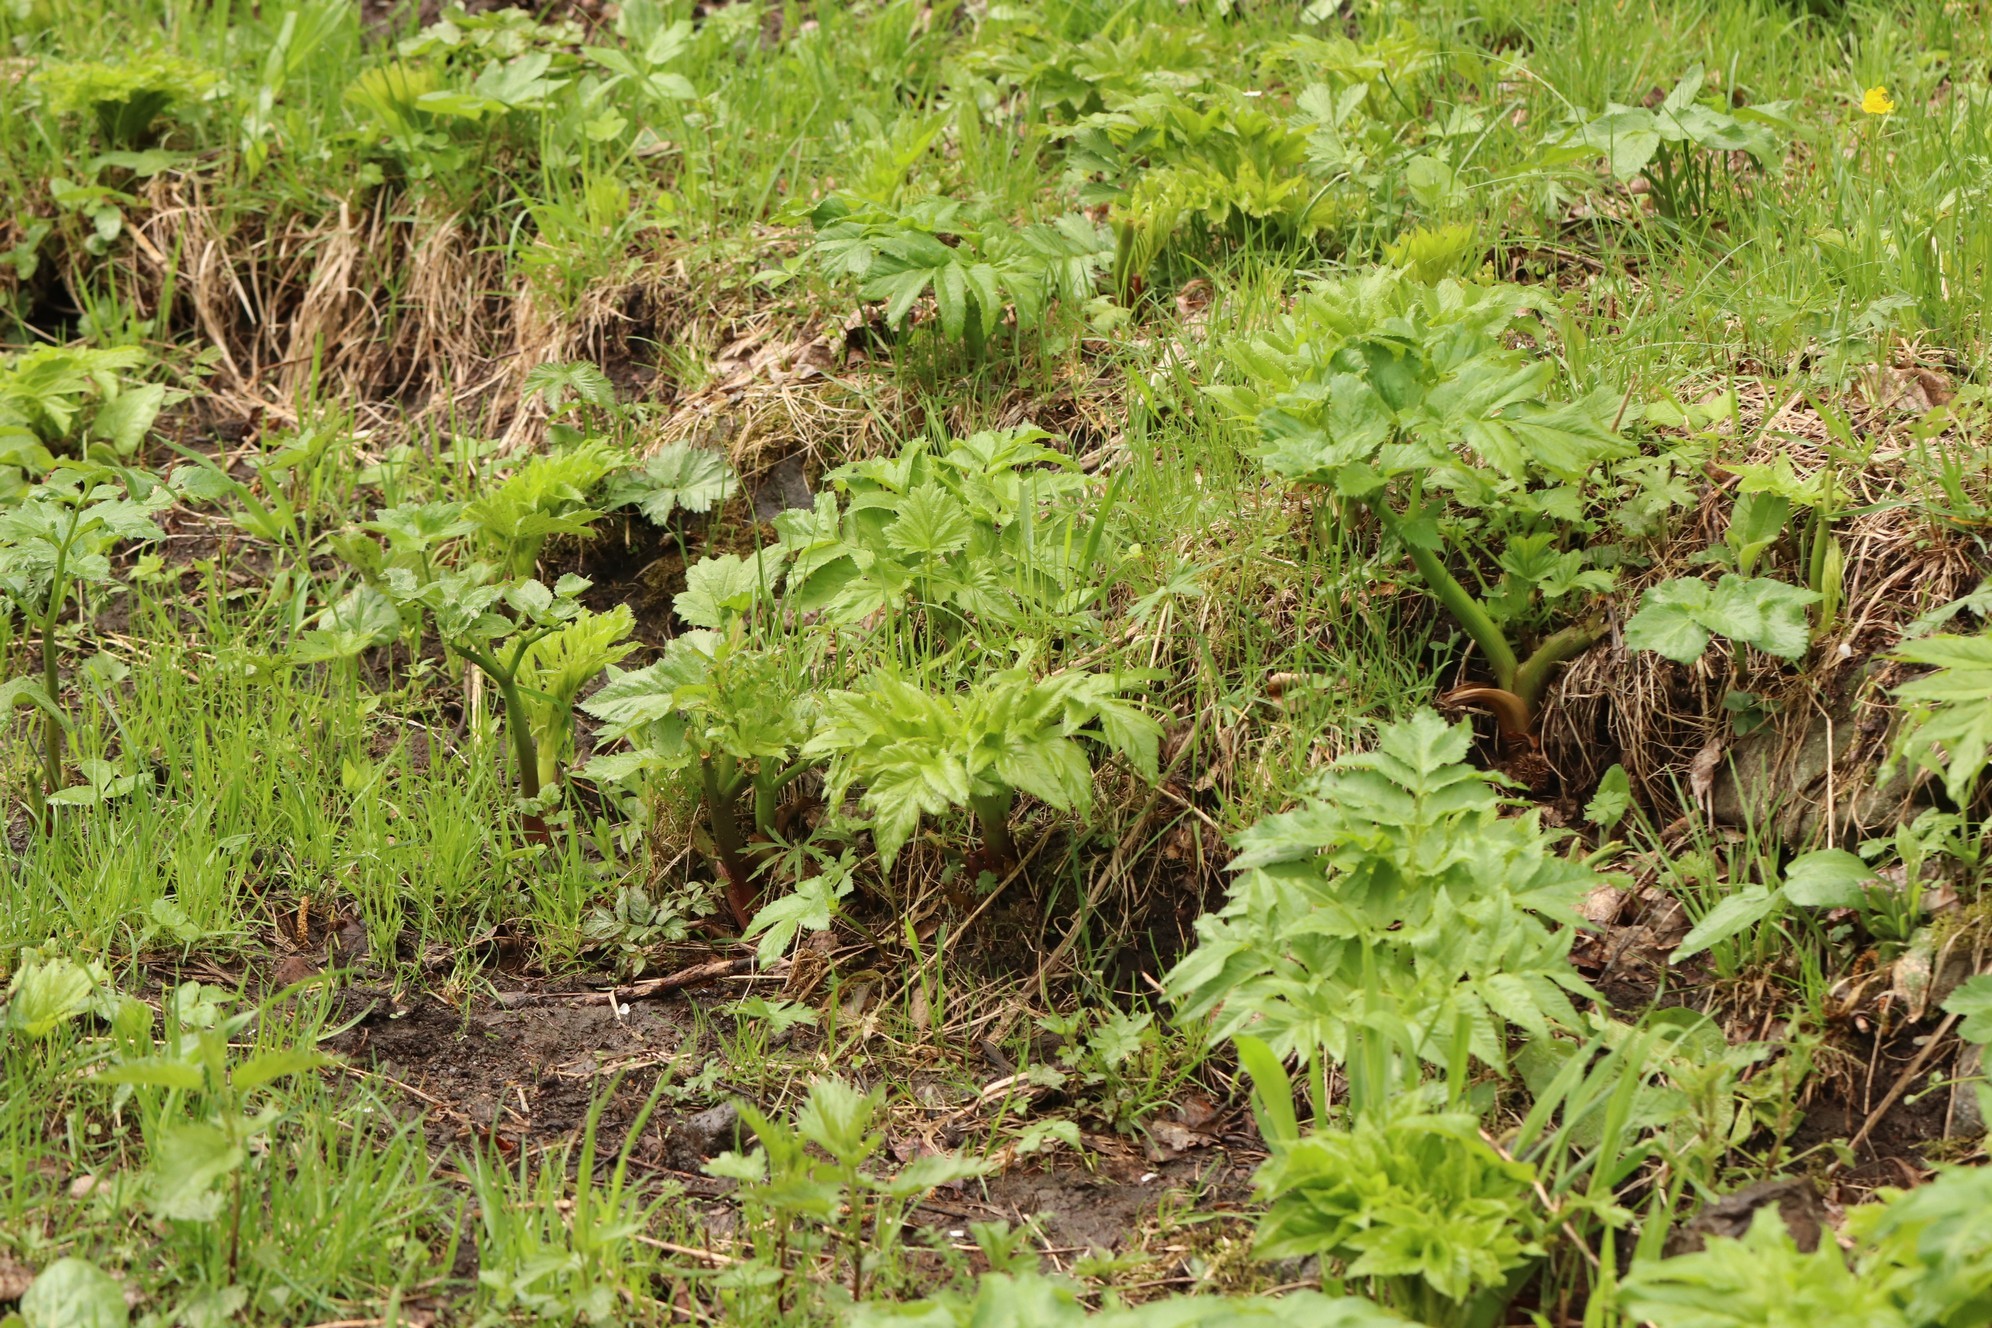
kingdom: Plantae
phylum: Tracheophyta
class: Magnoliopsida
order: Apiales
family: Apiaceae
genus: Angelica
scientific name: Angelica decurrens
